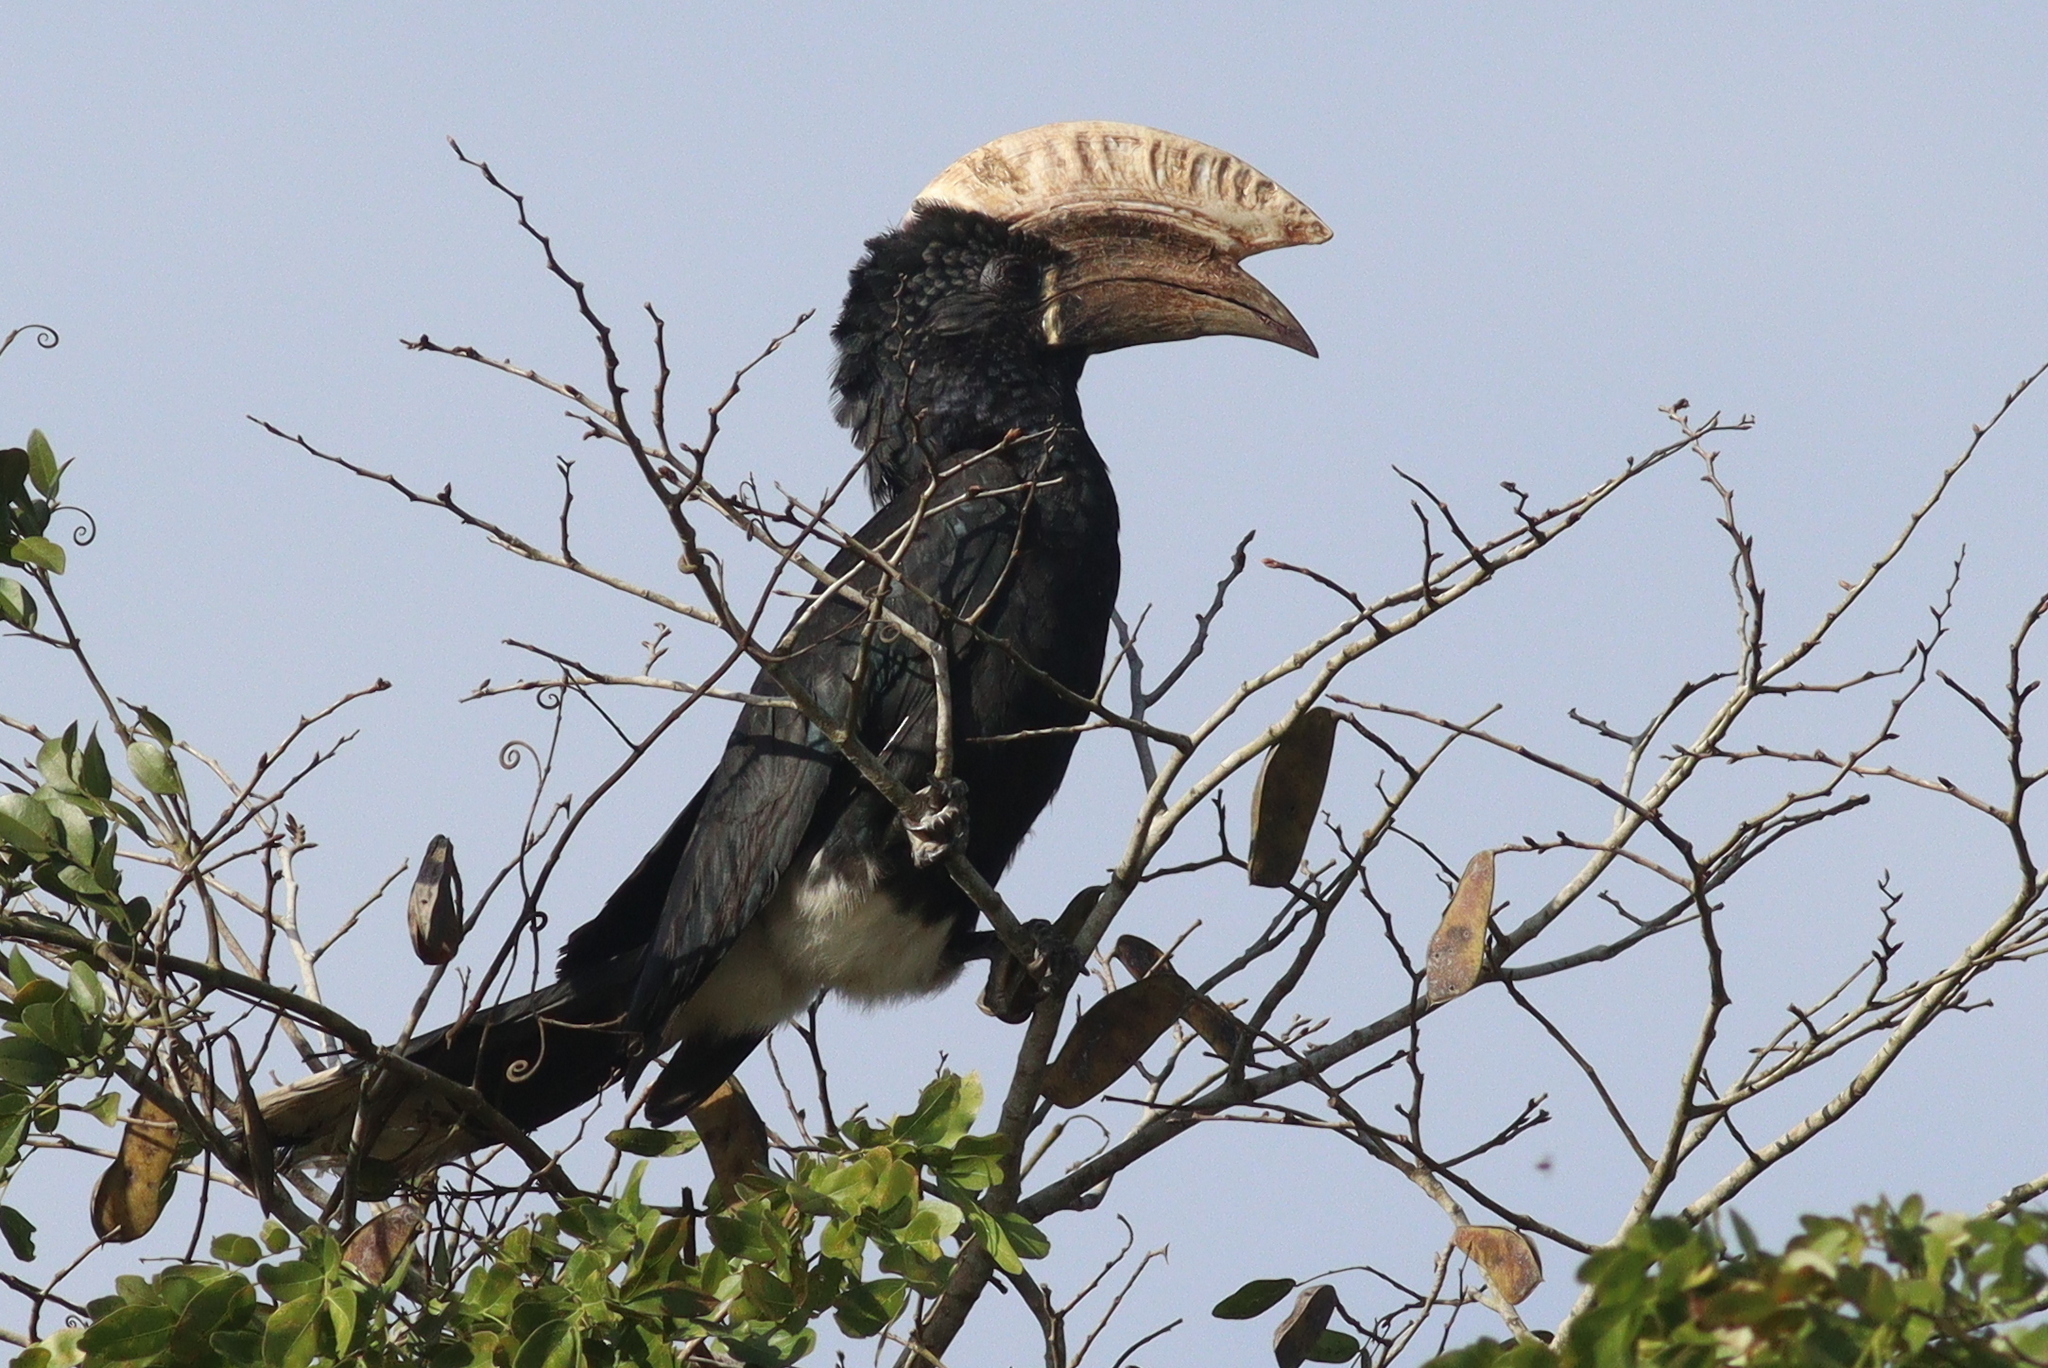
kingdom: Animalia
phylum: Chordata
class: Aves
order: Bucerotiformes
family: Bucerotidae
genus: Bycanistes
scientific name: Bycanistes brevis
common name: Silvery-cheeked hornbill
